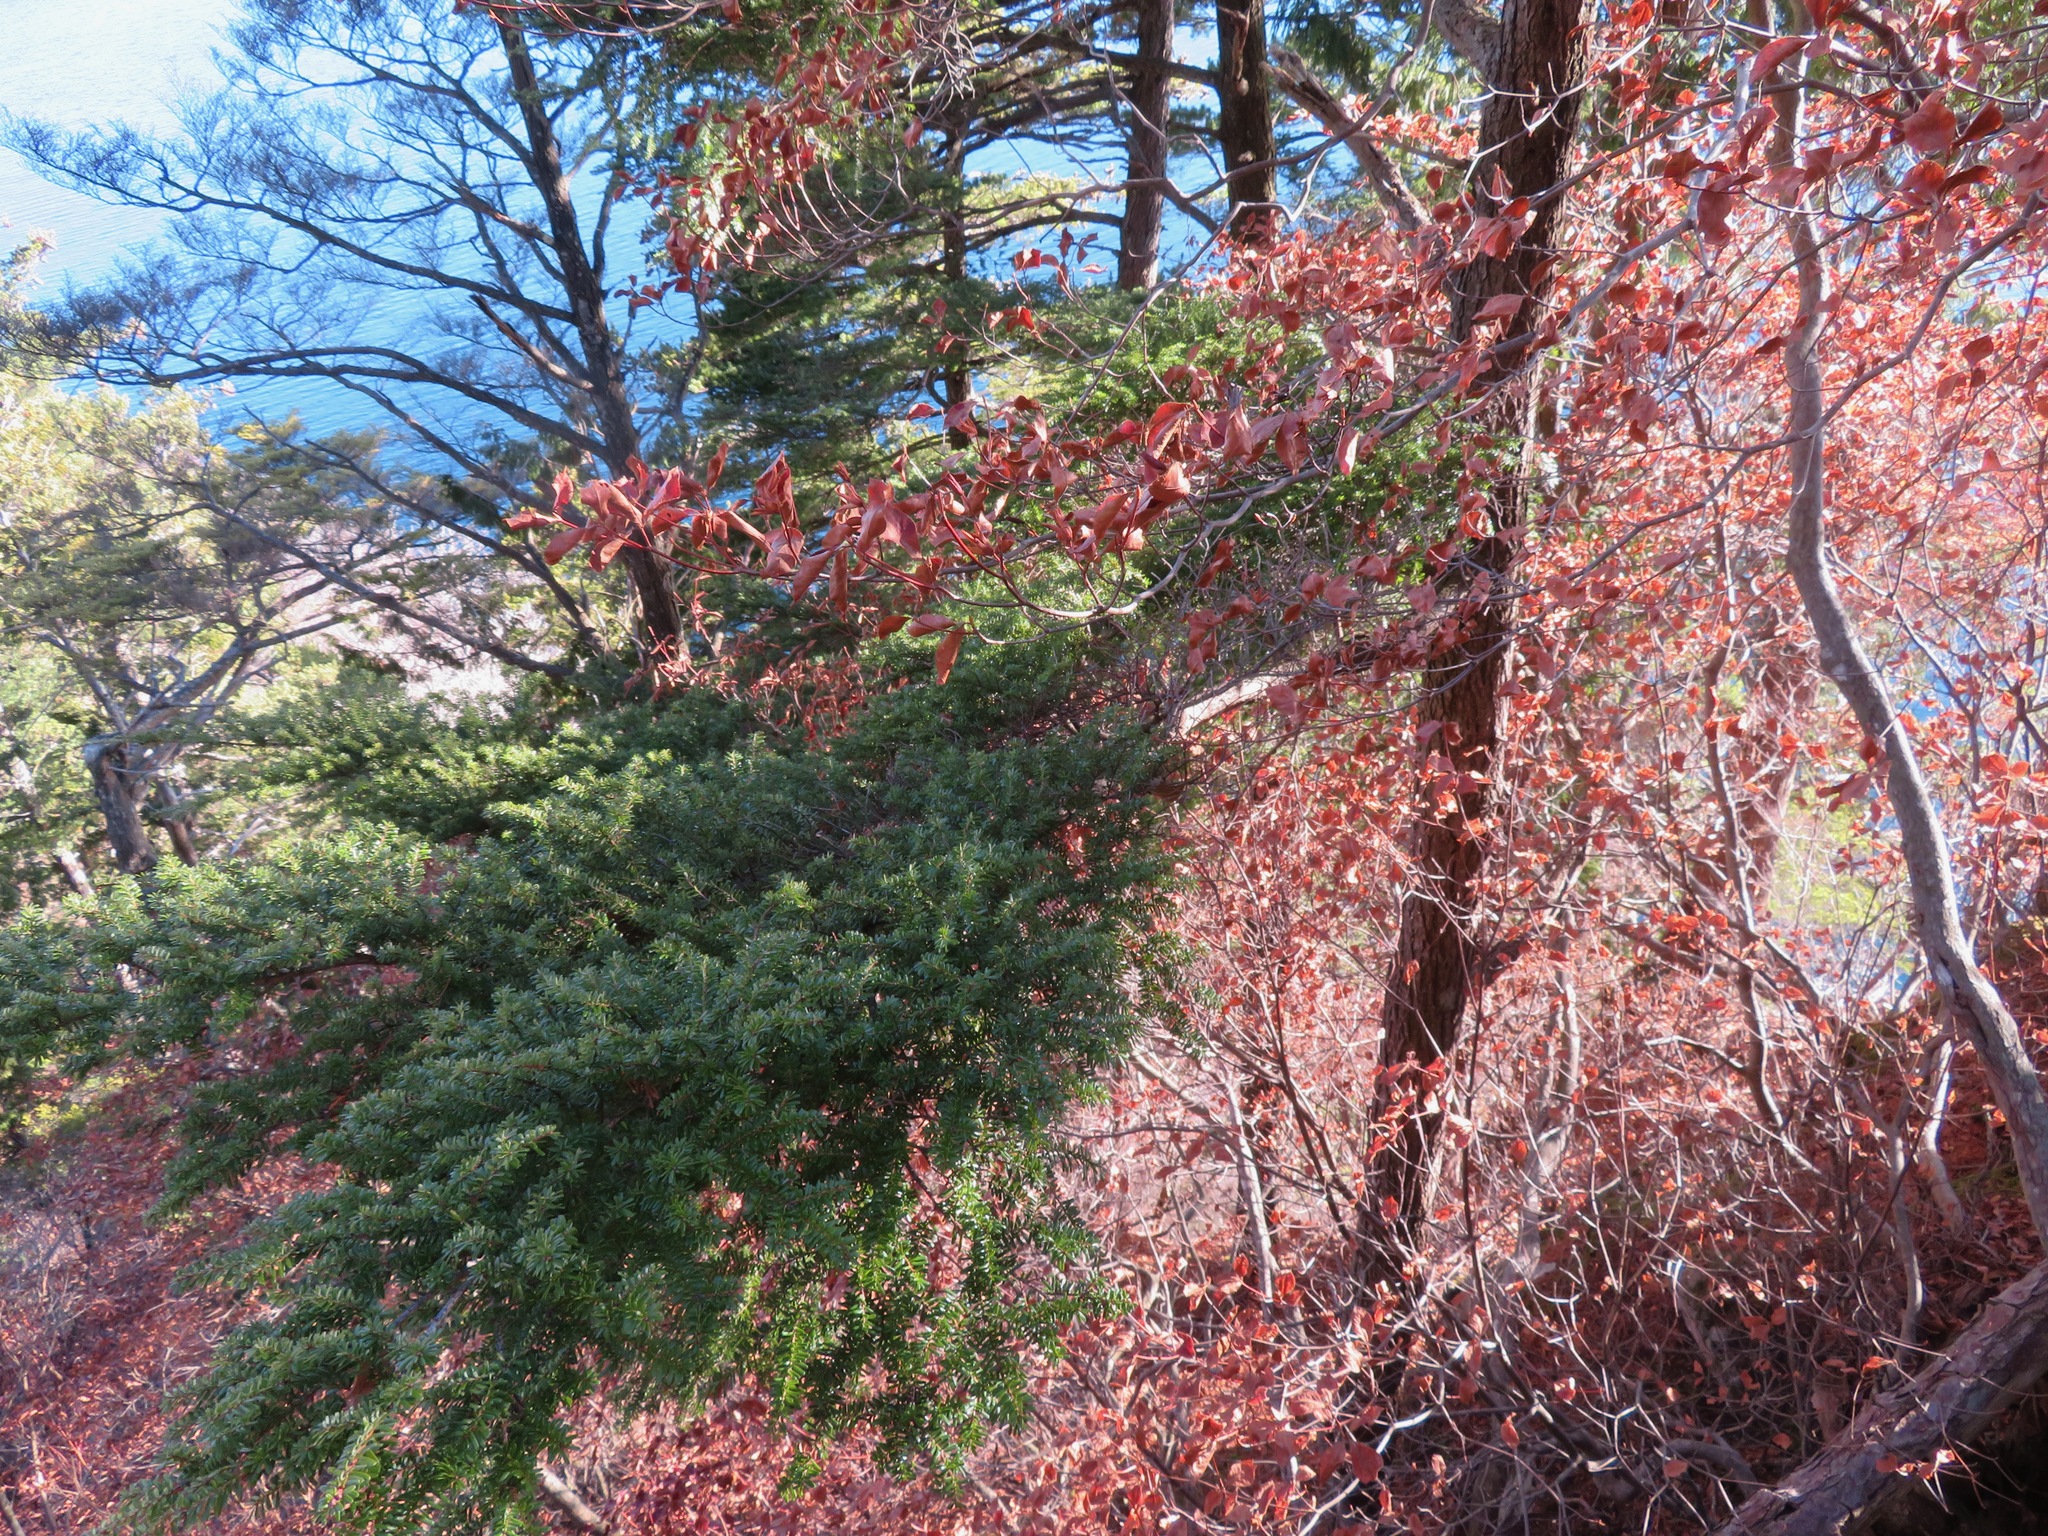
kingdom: Plantae
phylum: Tracheophyta
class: Pinopsida
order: Pinales
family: Pinaceae
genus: Tsuga
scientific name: Tsuga diversifolia
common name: Northern japanese hemlock
